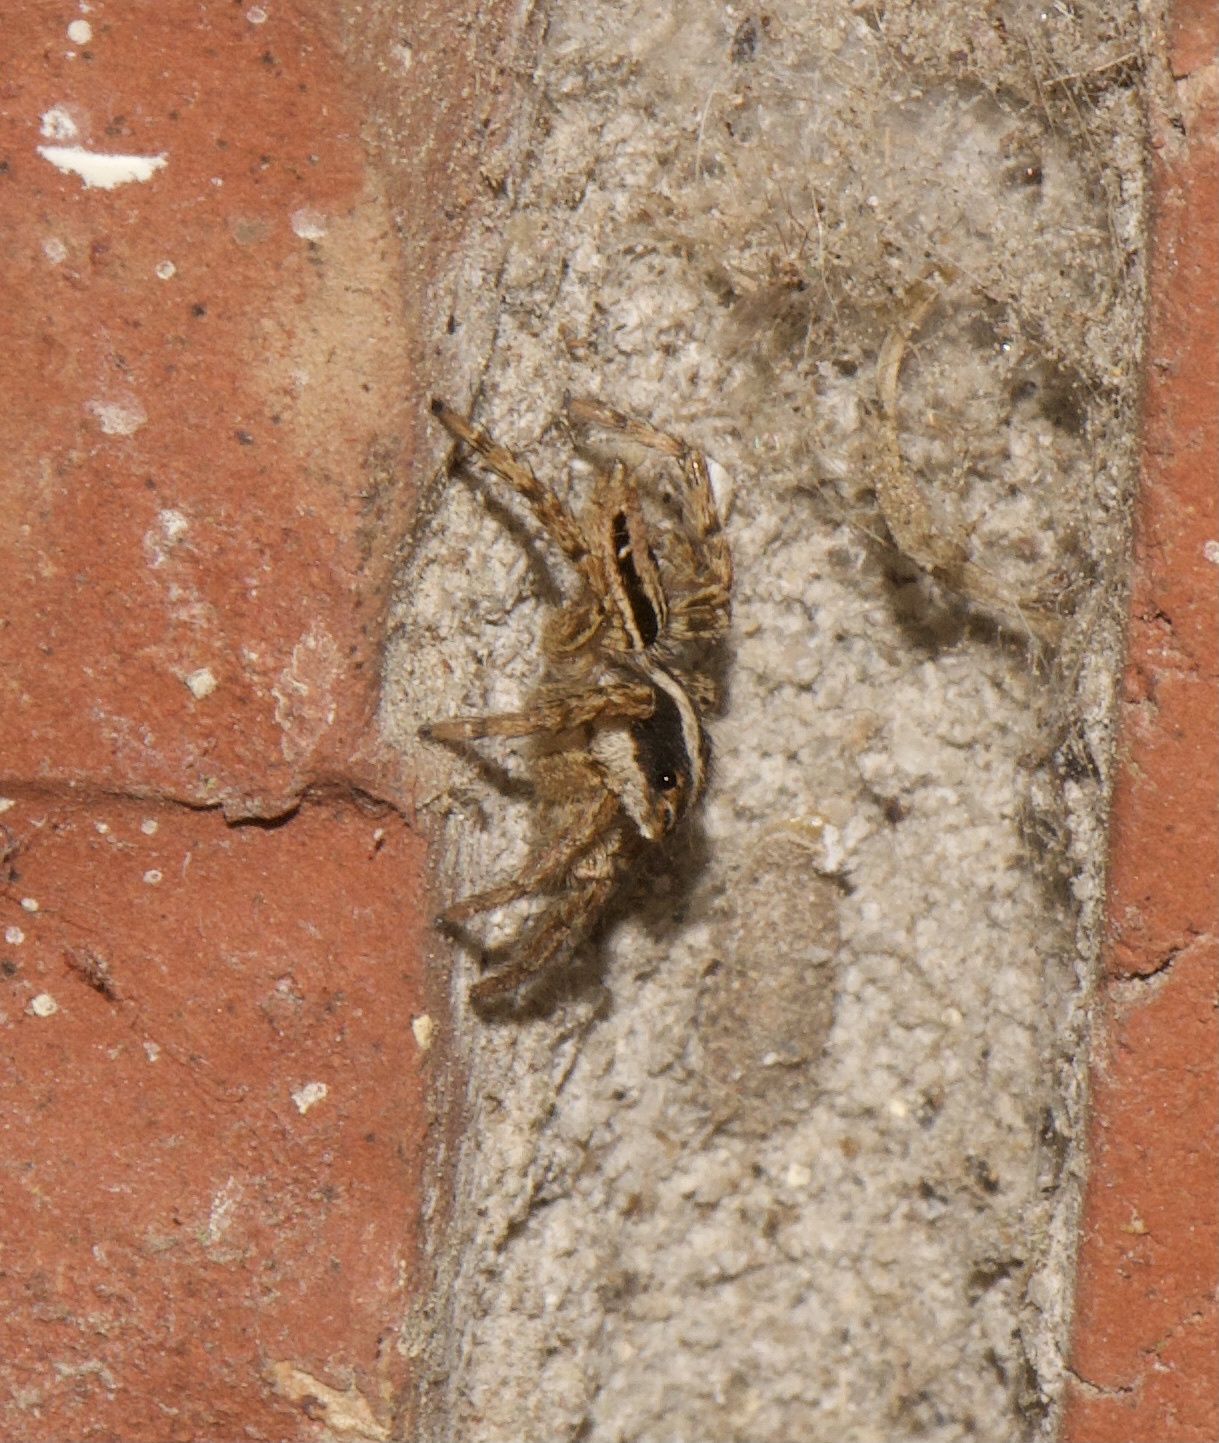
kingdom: Animalia
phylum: Arthropoda
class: Arachnida
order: Araneae
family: Salticidae
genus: Plexippus
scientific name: Plexippus paykulli
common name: Pantropical jumper
